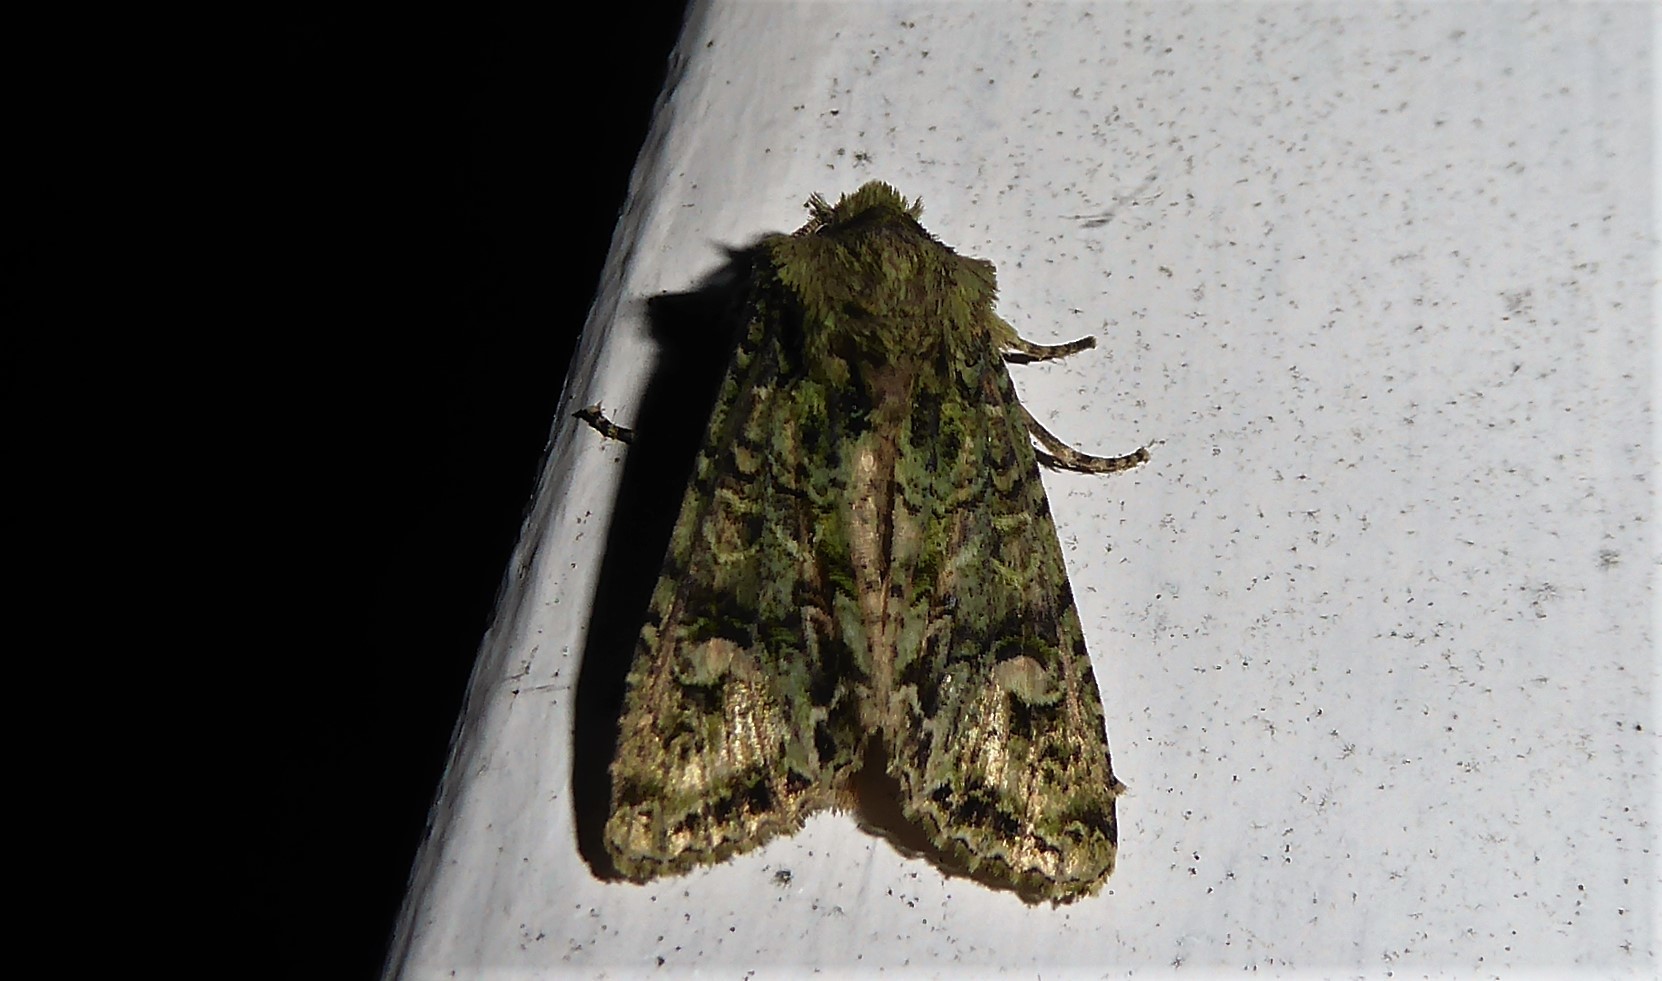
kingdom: Animalia
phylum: Arthropoda
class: Insecta
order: Lepidoptera
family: Noctuidae
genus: Ichneutica
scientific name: Ichneutica
